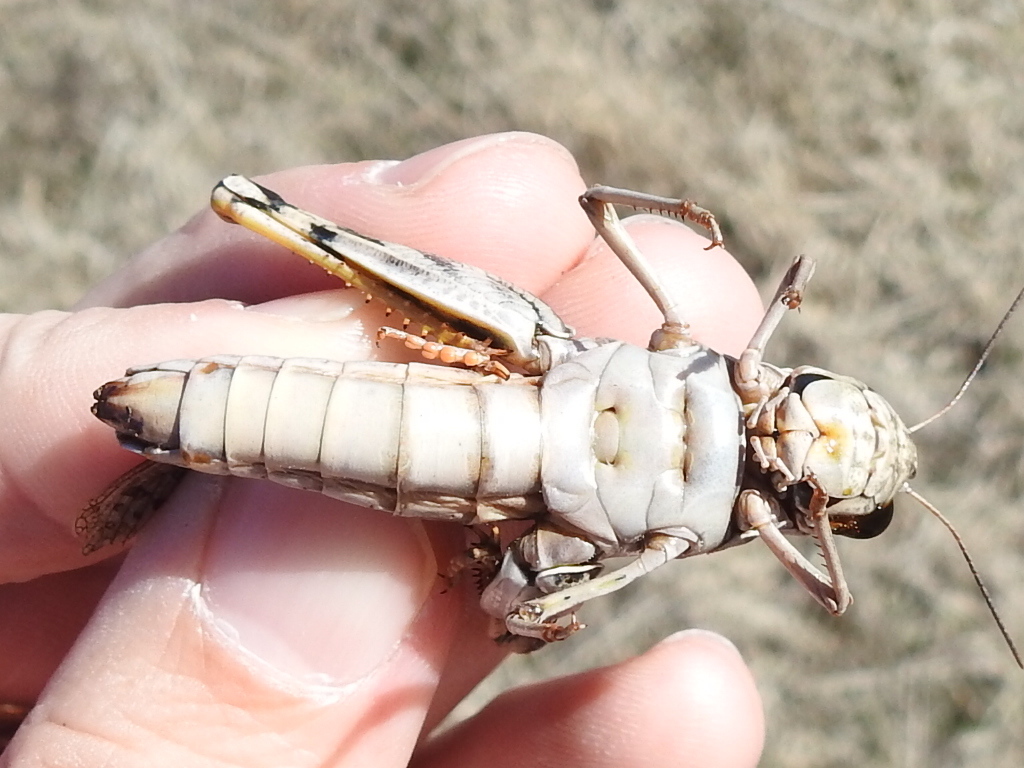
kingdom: Animalia
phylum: Arthropoda
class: Insecta
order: Orthoptera
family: Acrididae
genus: Hippiscus
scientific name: Hippiscus ocelote
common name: Wrinkled grasshopper
